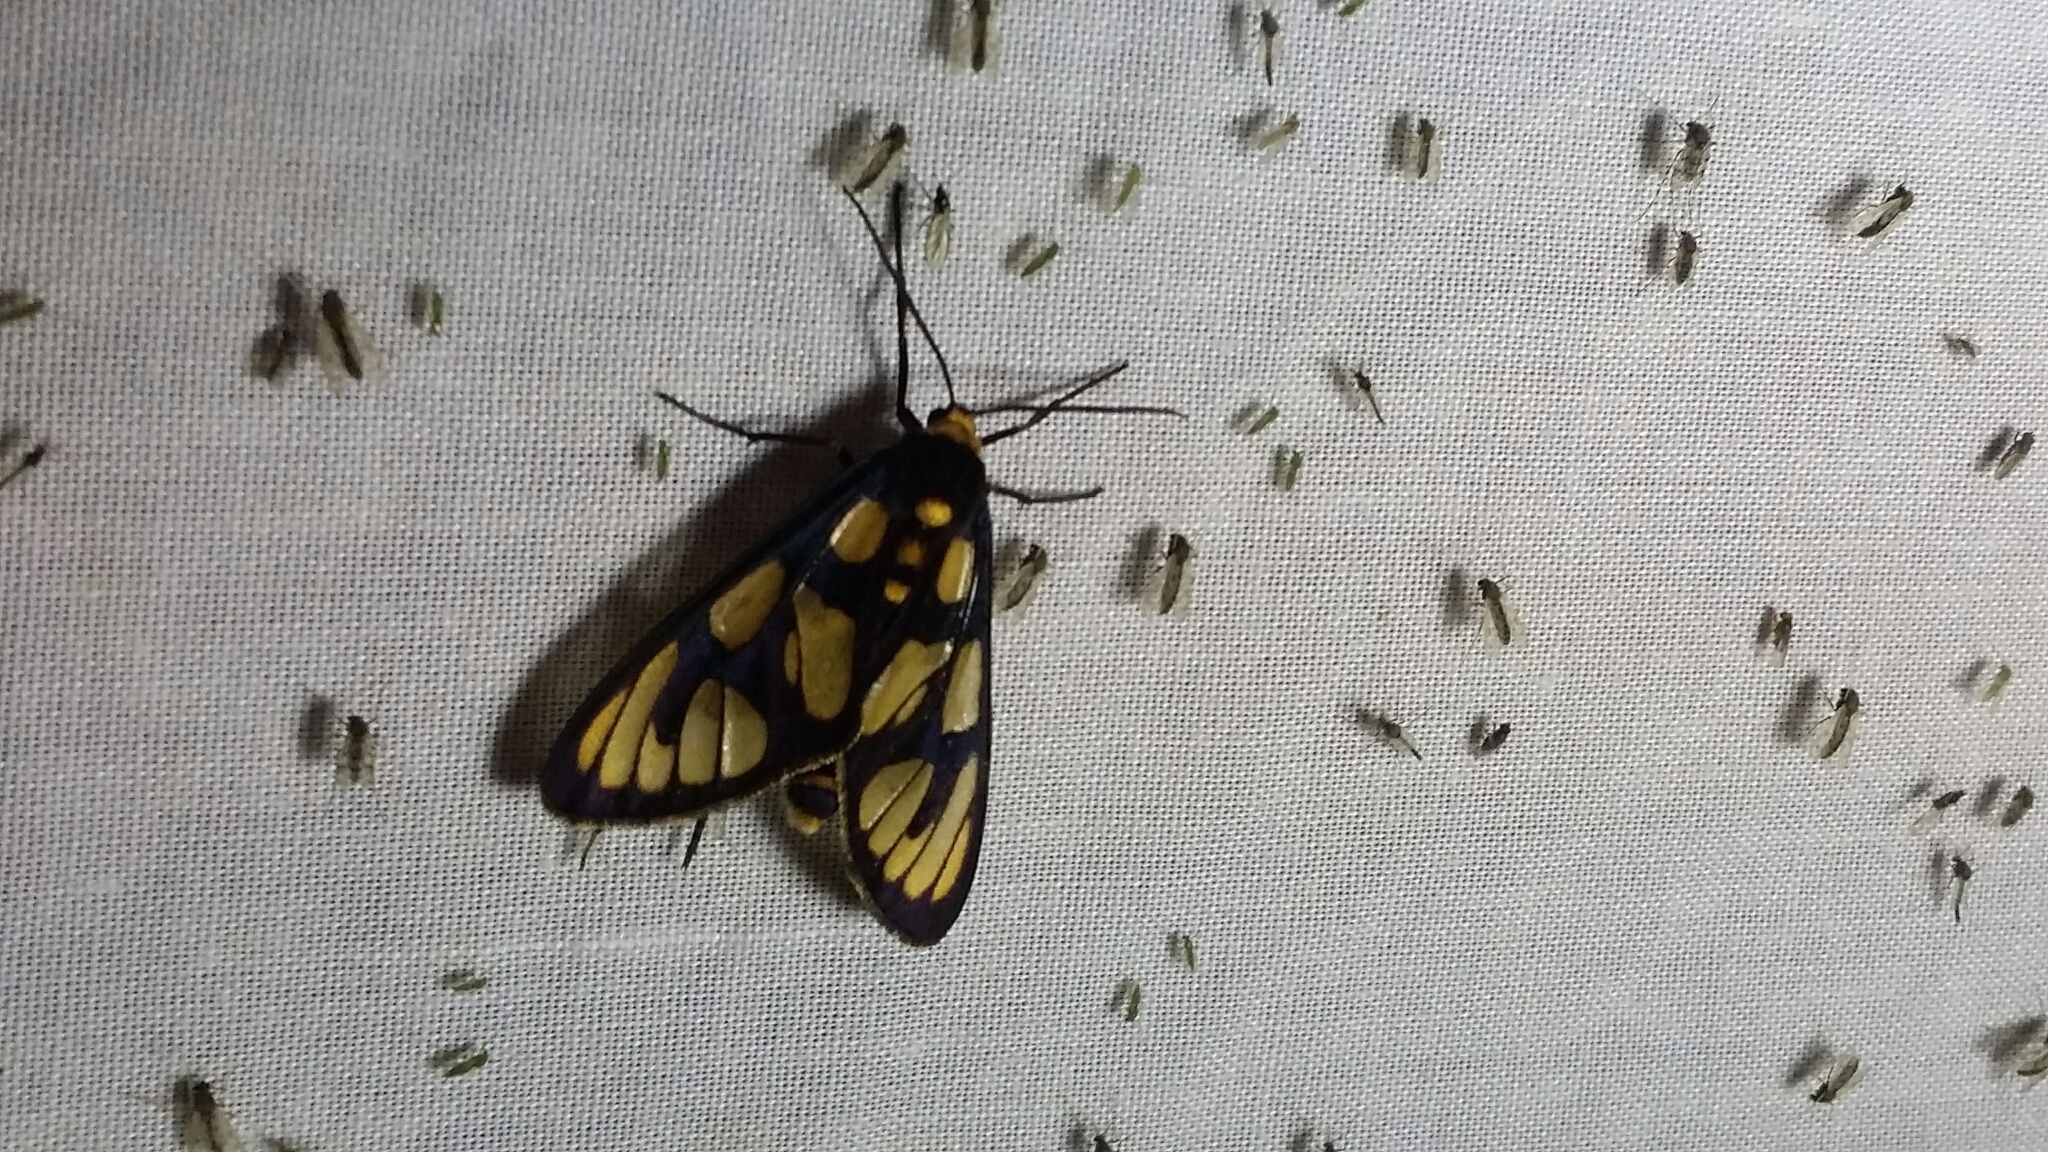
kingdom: Animalia
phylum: Arthropoda
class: Insecta
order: Lepidoptera
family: Erebidae
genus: Amata
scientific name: Amata aperta
